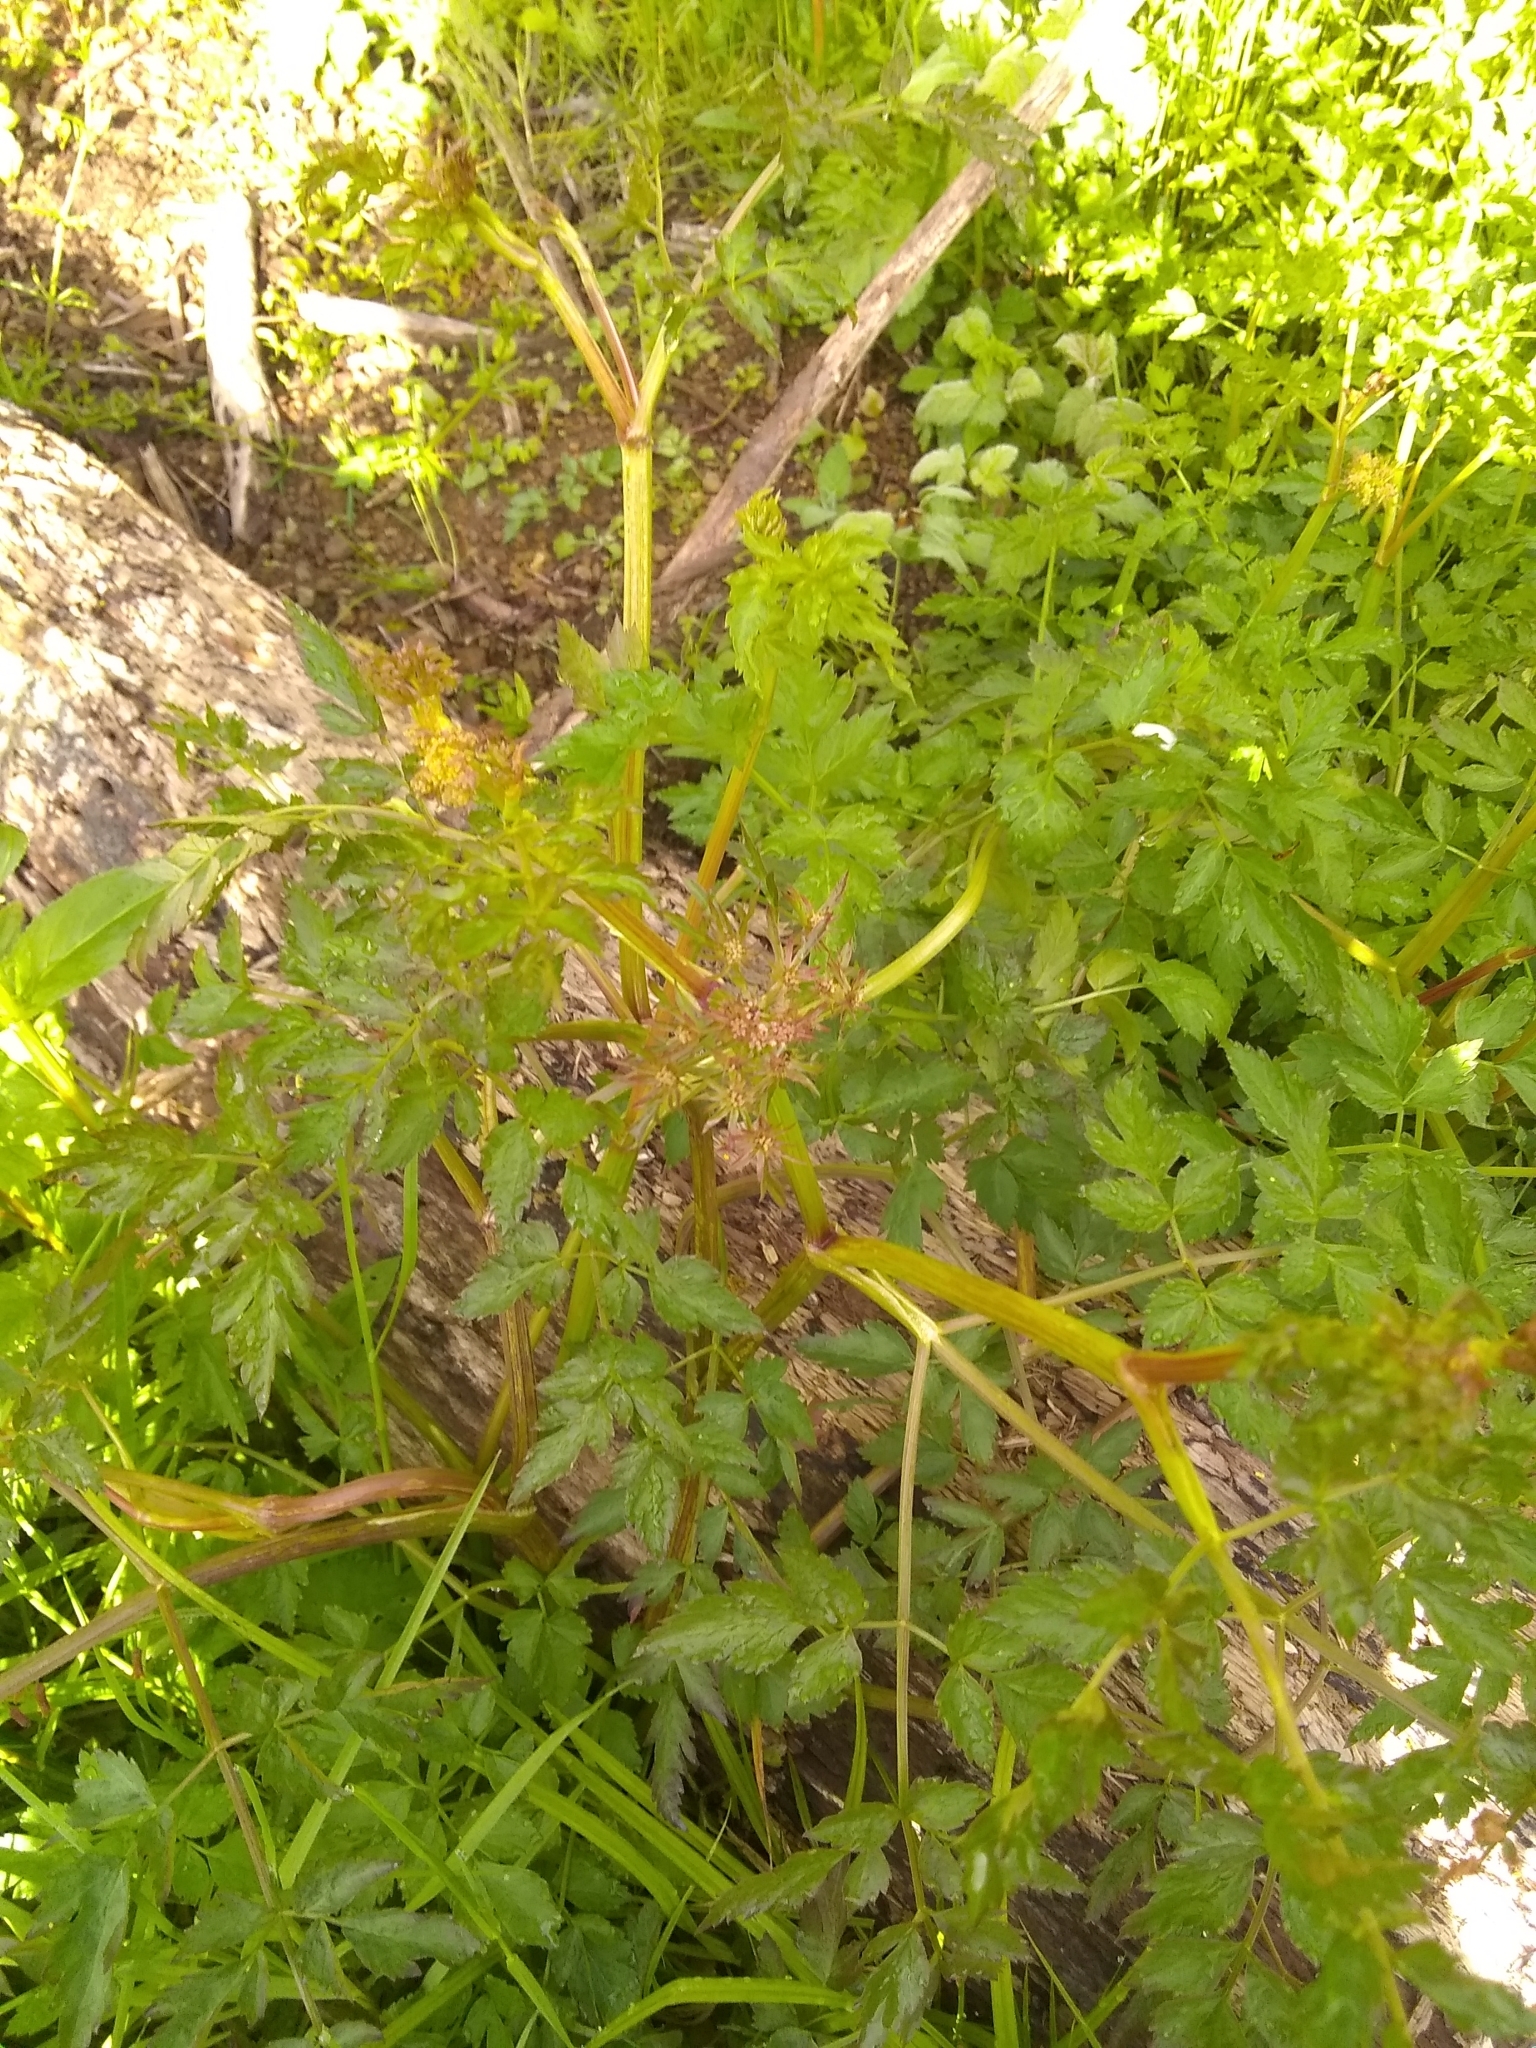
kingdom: Plantae
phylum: Tracheophyta
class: Magnoliopsida
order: Apiales
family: Apiaceae
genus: Oenanthe
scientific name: Oenanthe sarmentosa
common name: American water-parsley
